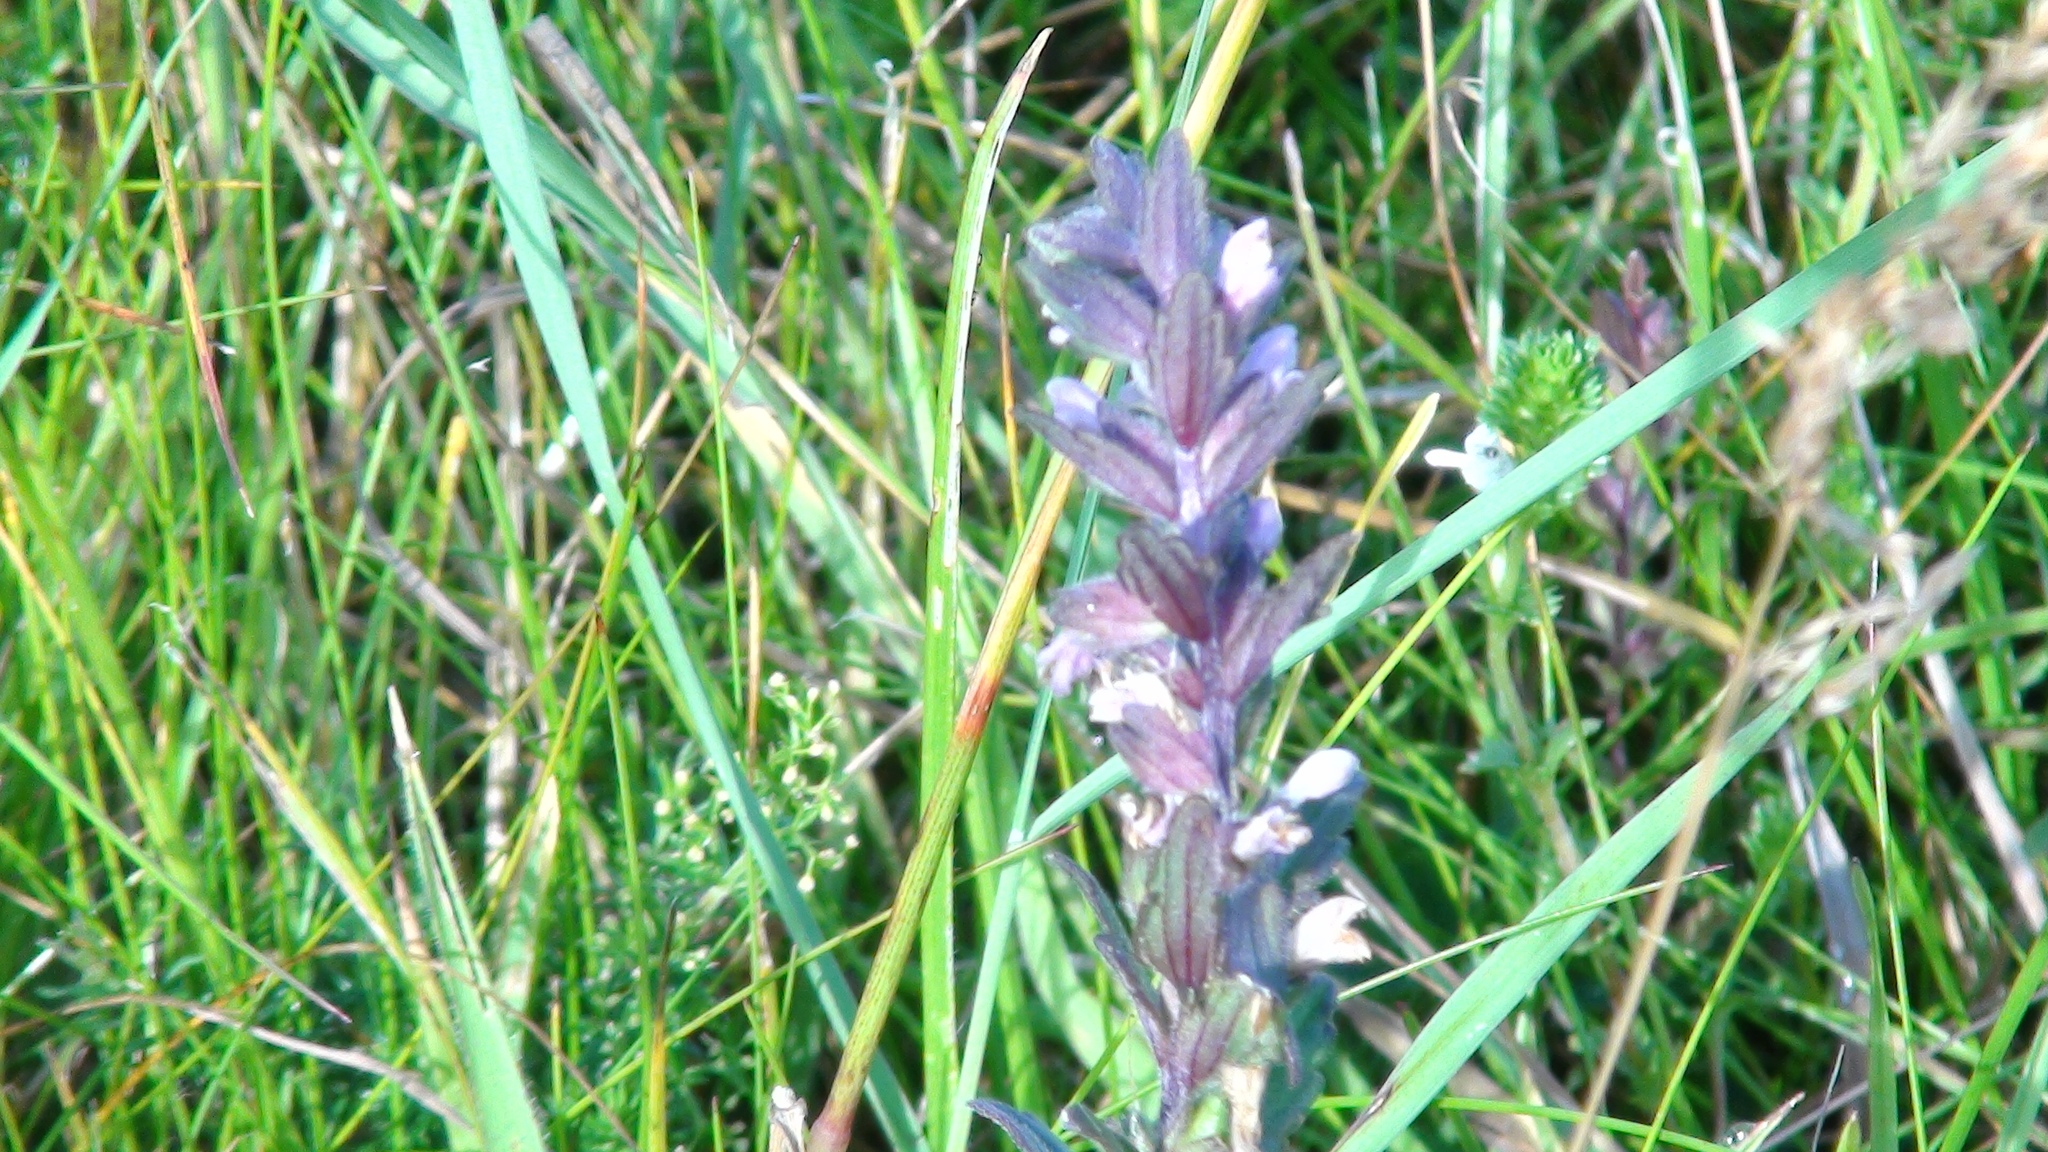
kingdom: Plantae
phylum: Tracheophyta
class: Magnoliopsida
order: Lamiales
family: Orobanchaceae
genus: Odontites
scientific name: Odontites vernus
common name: Red bartsia
